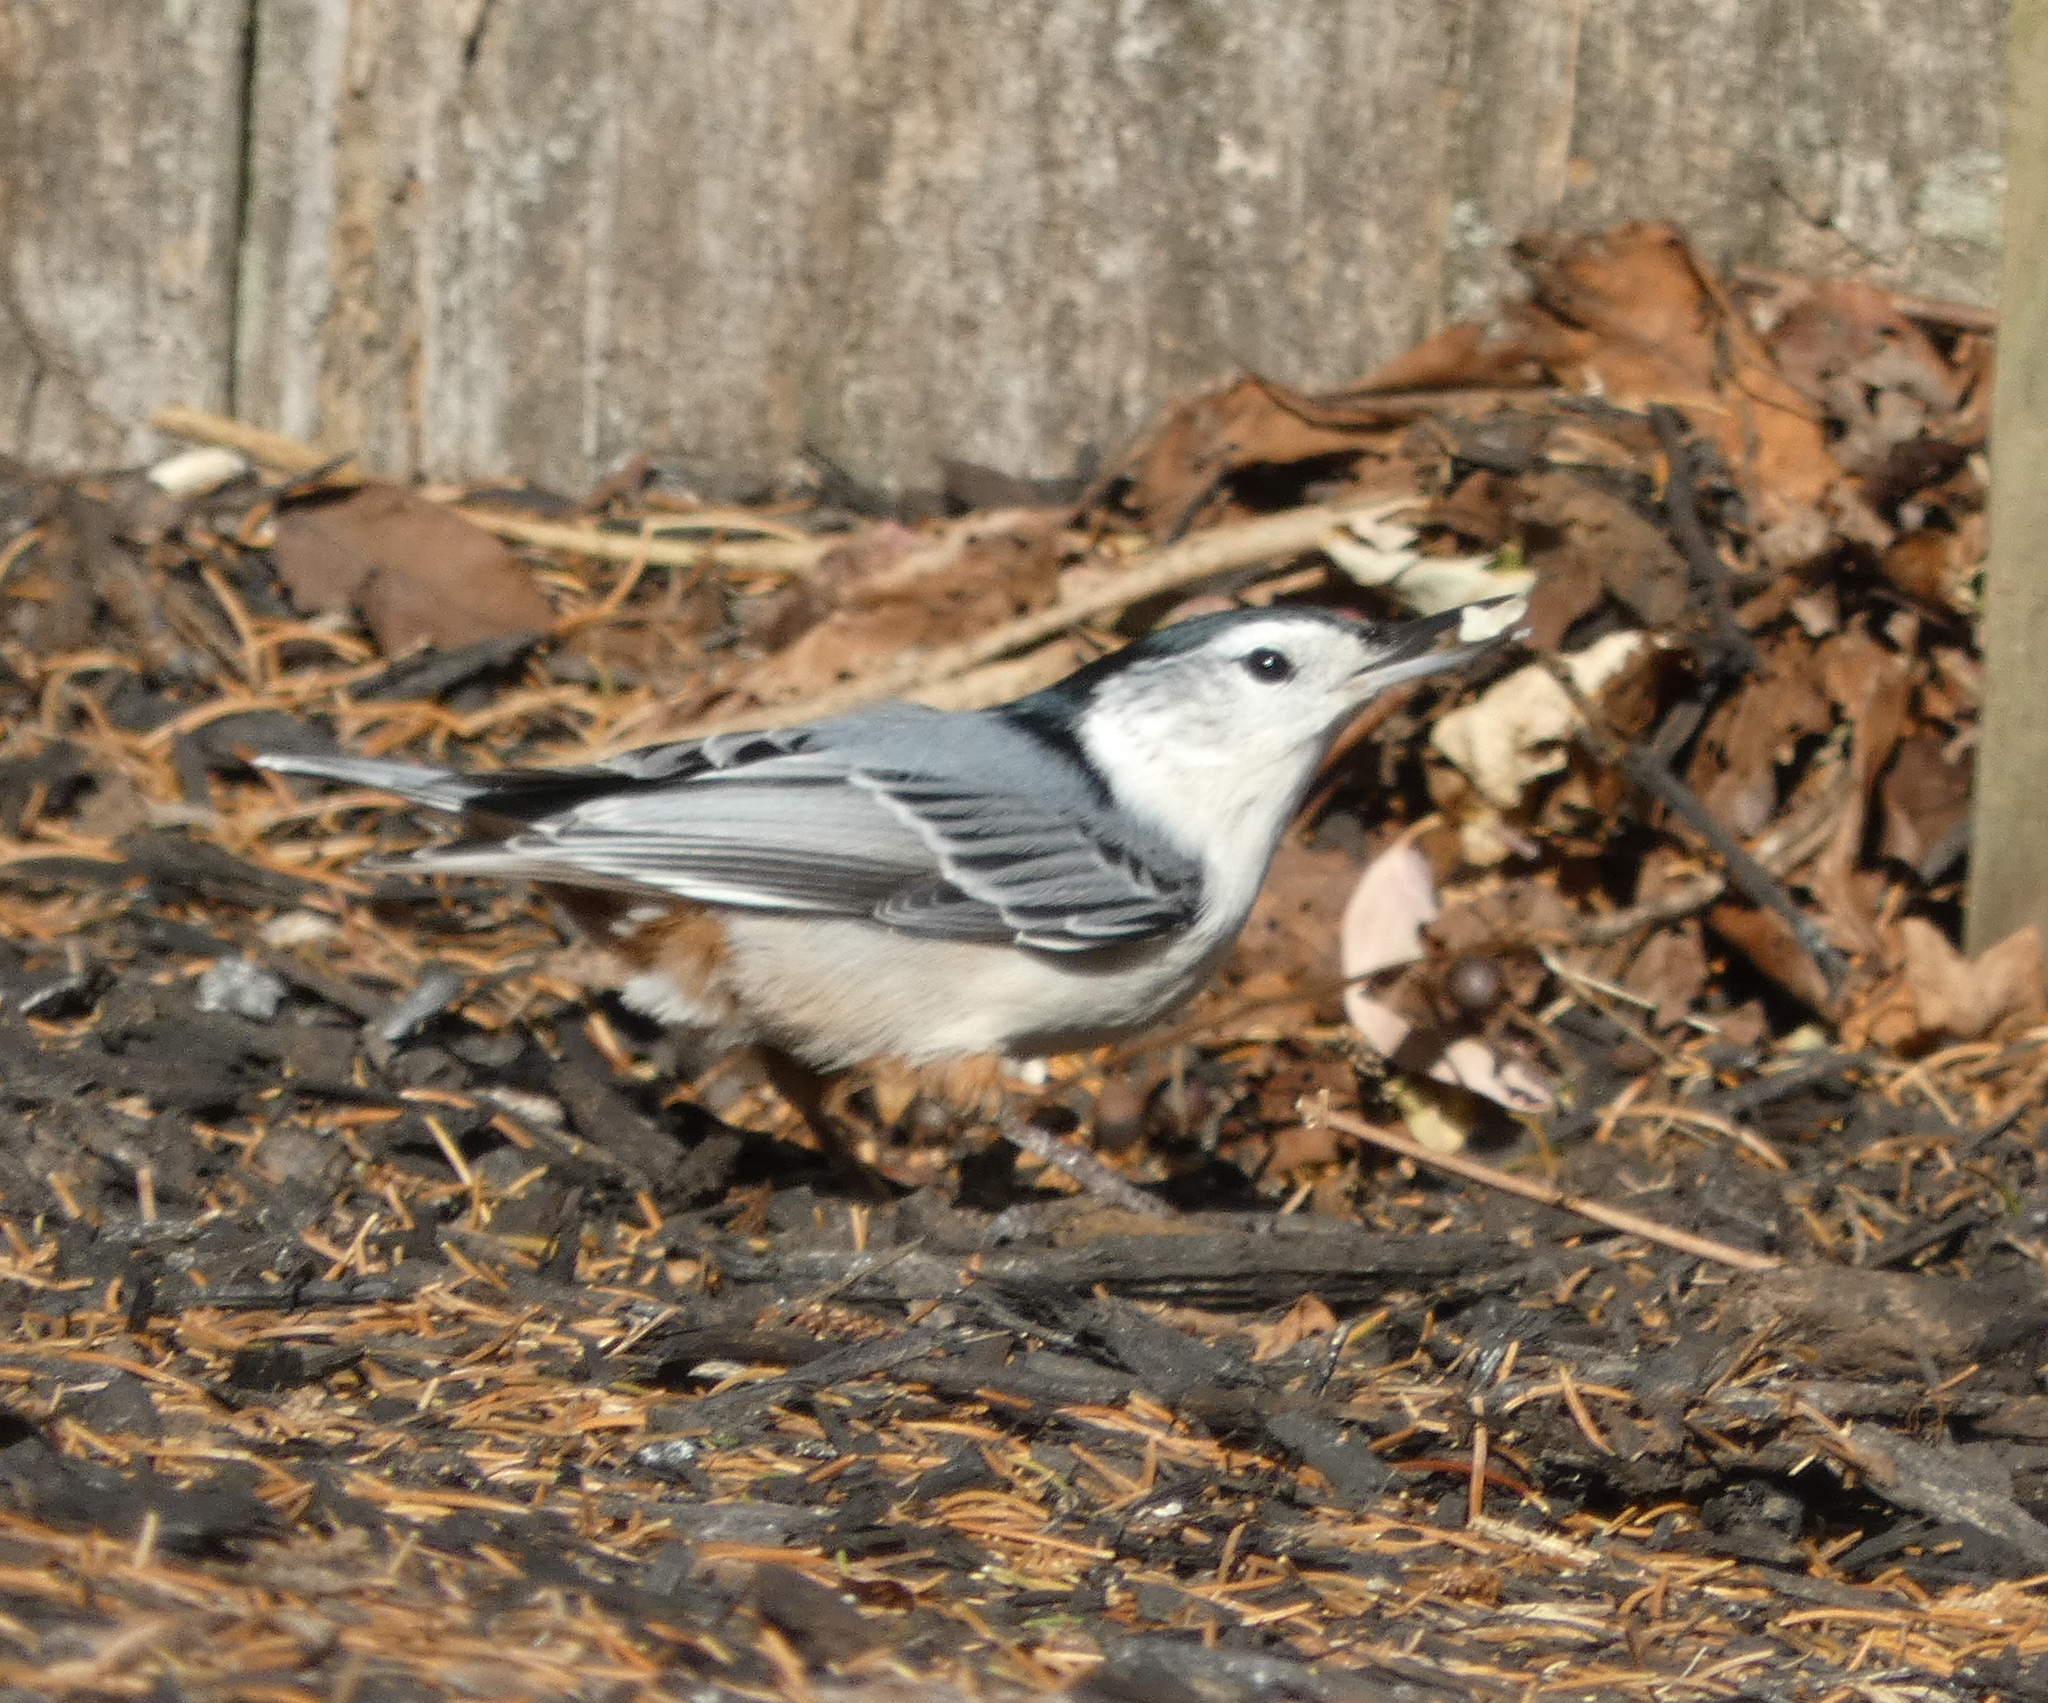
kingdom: Animalia
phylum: Chordata
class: Aves
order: Passeriformes
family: Sittidae
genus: Sitta
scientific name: Sitta carolinensis
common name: White-breasted nuthatch
